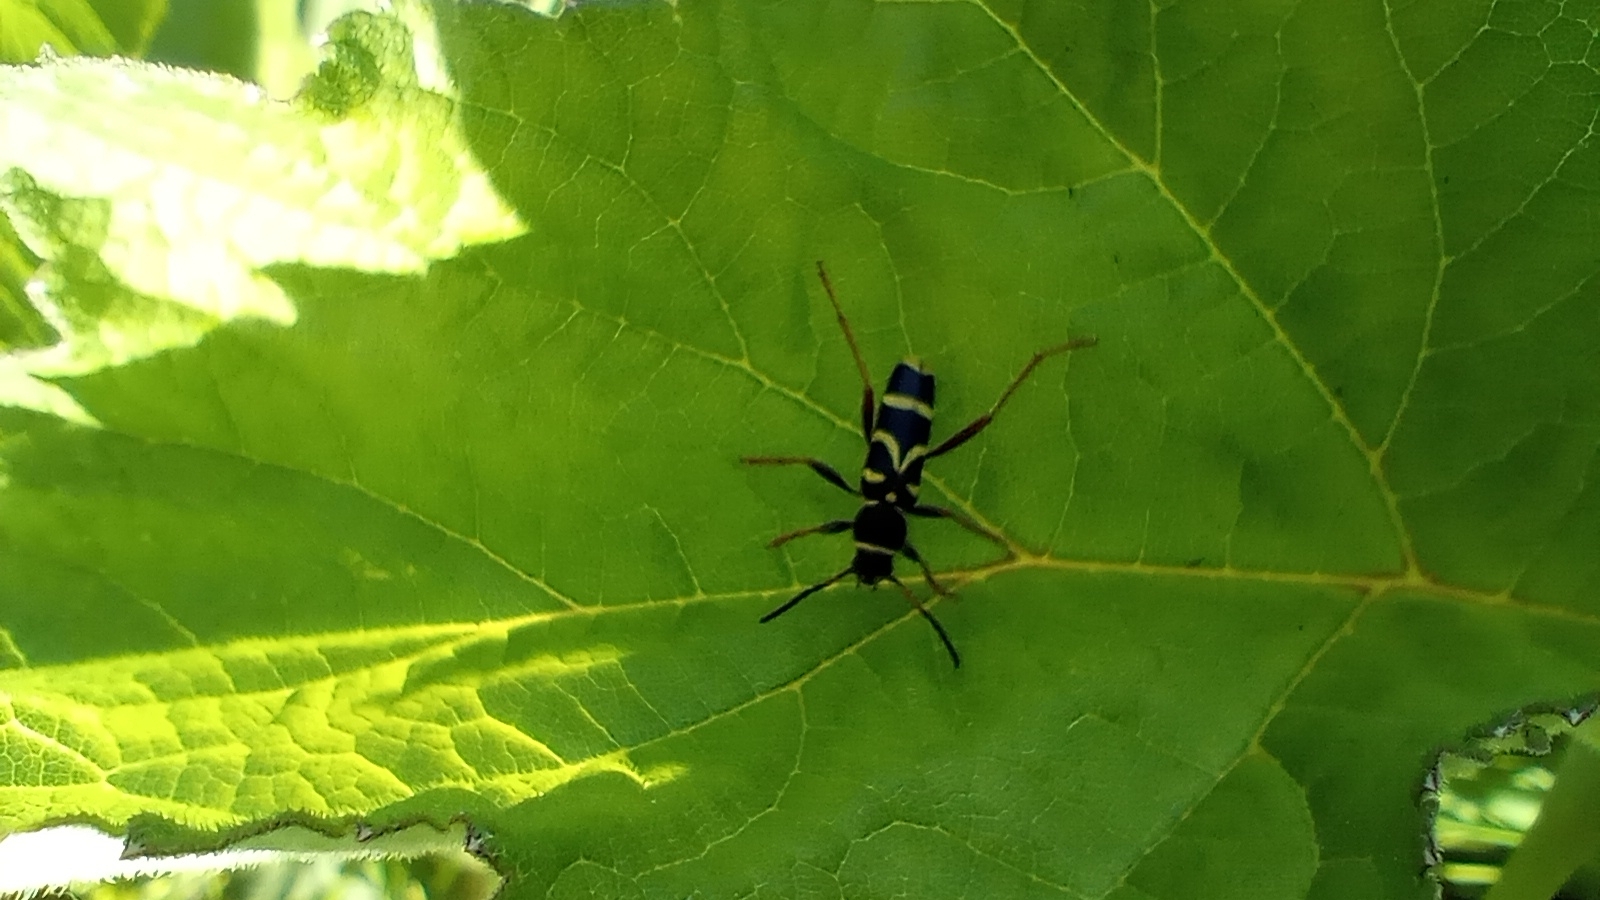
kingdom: Animalia
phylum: Arthropoda
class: Insecta
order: Coleoptera
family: Cerambycidae
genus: Clytus
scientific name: Clytus arietis
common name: Wasp beetle
